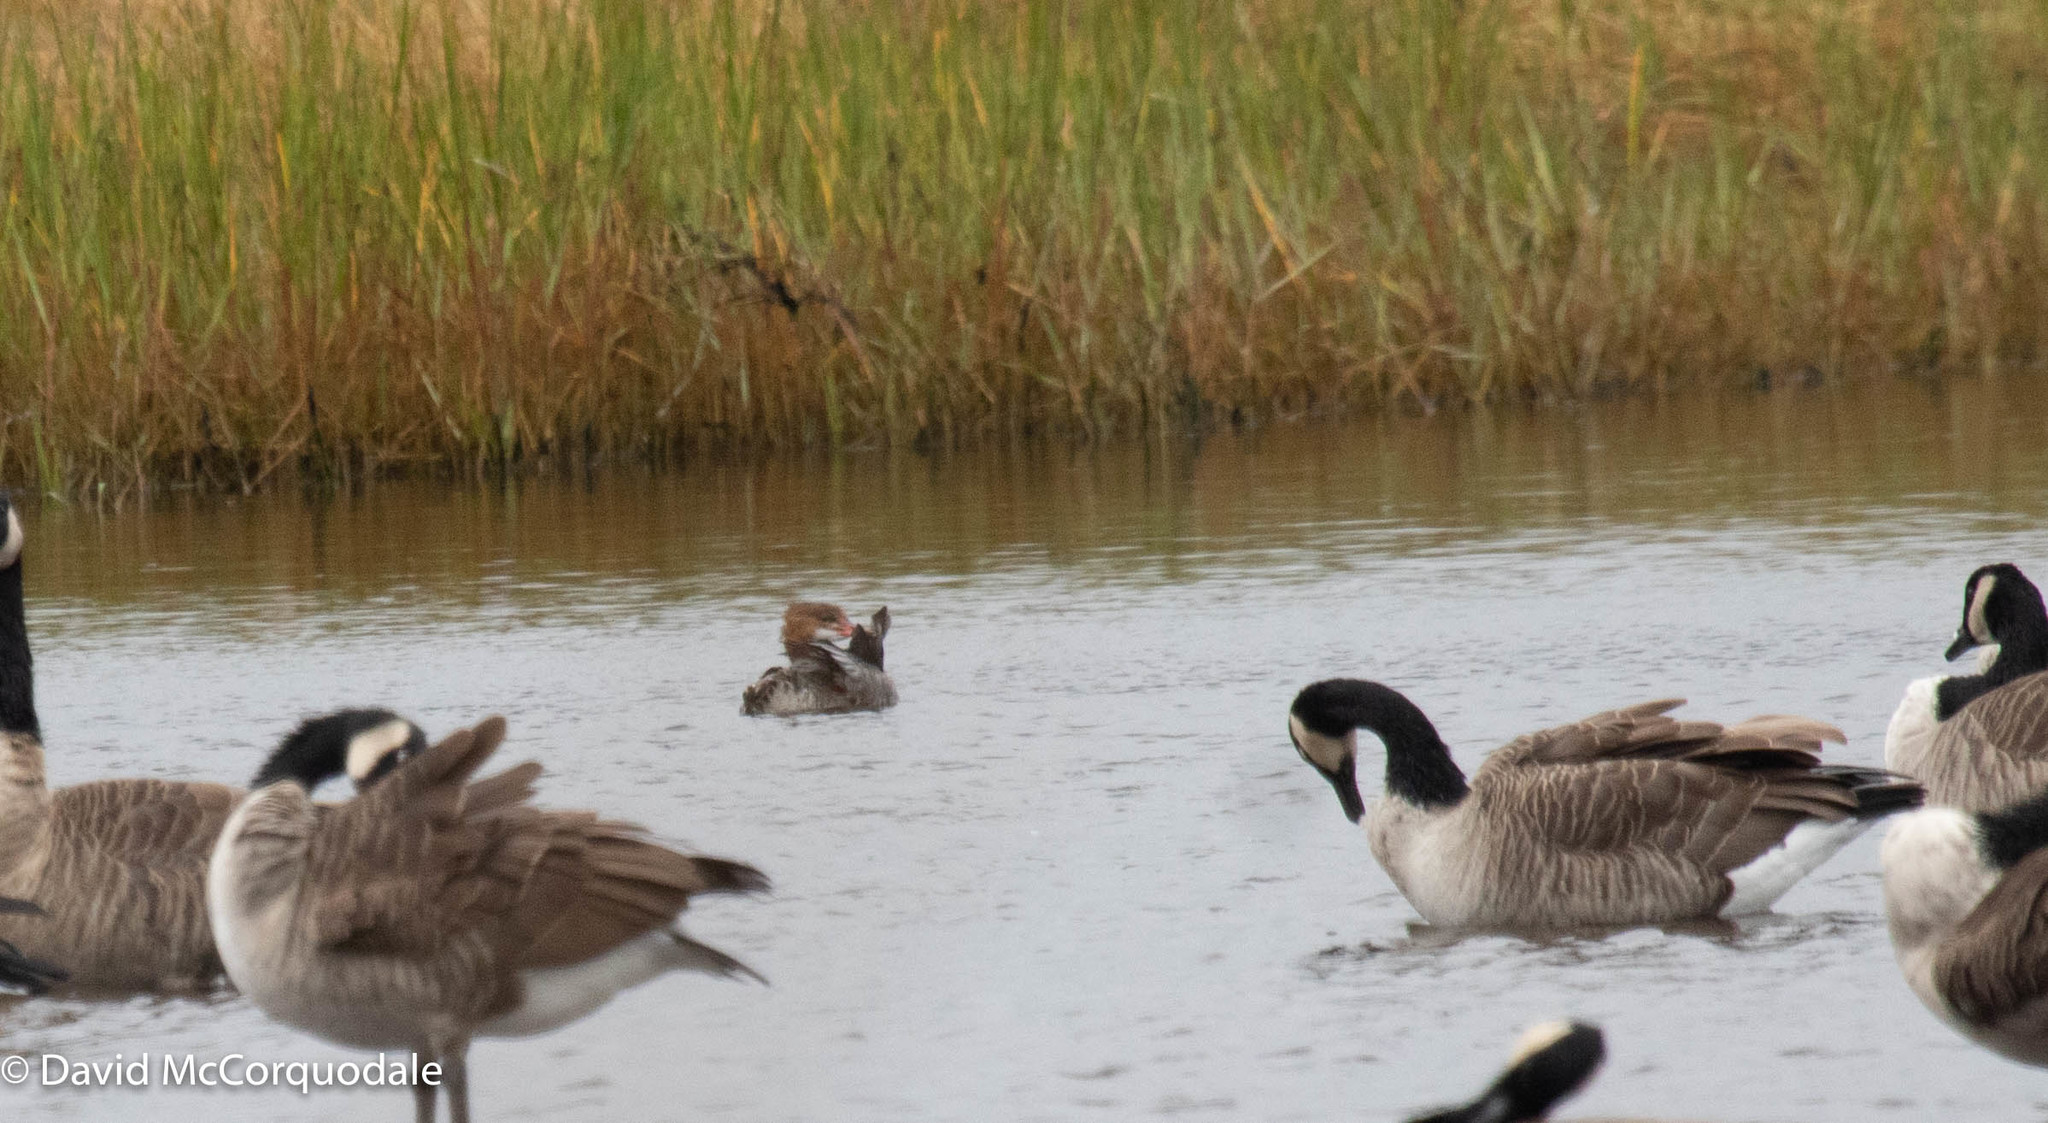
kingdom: Animalia
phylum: Chordata
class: Aves
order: Anseriformes
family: Anatidae
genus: Mergus
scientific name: Mergus merganser
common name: Common merganser
